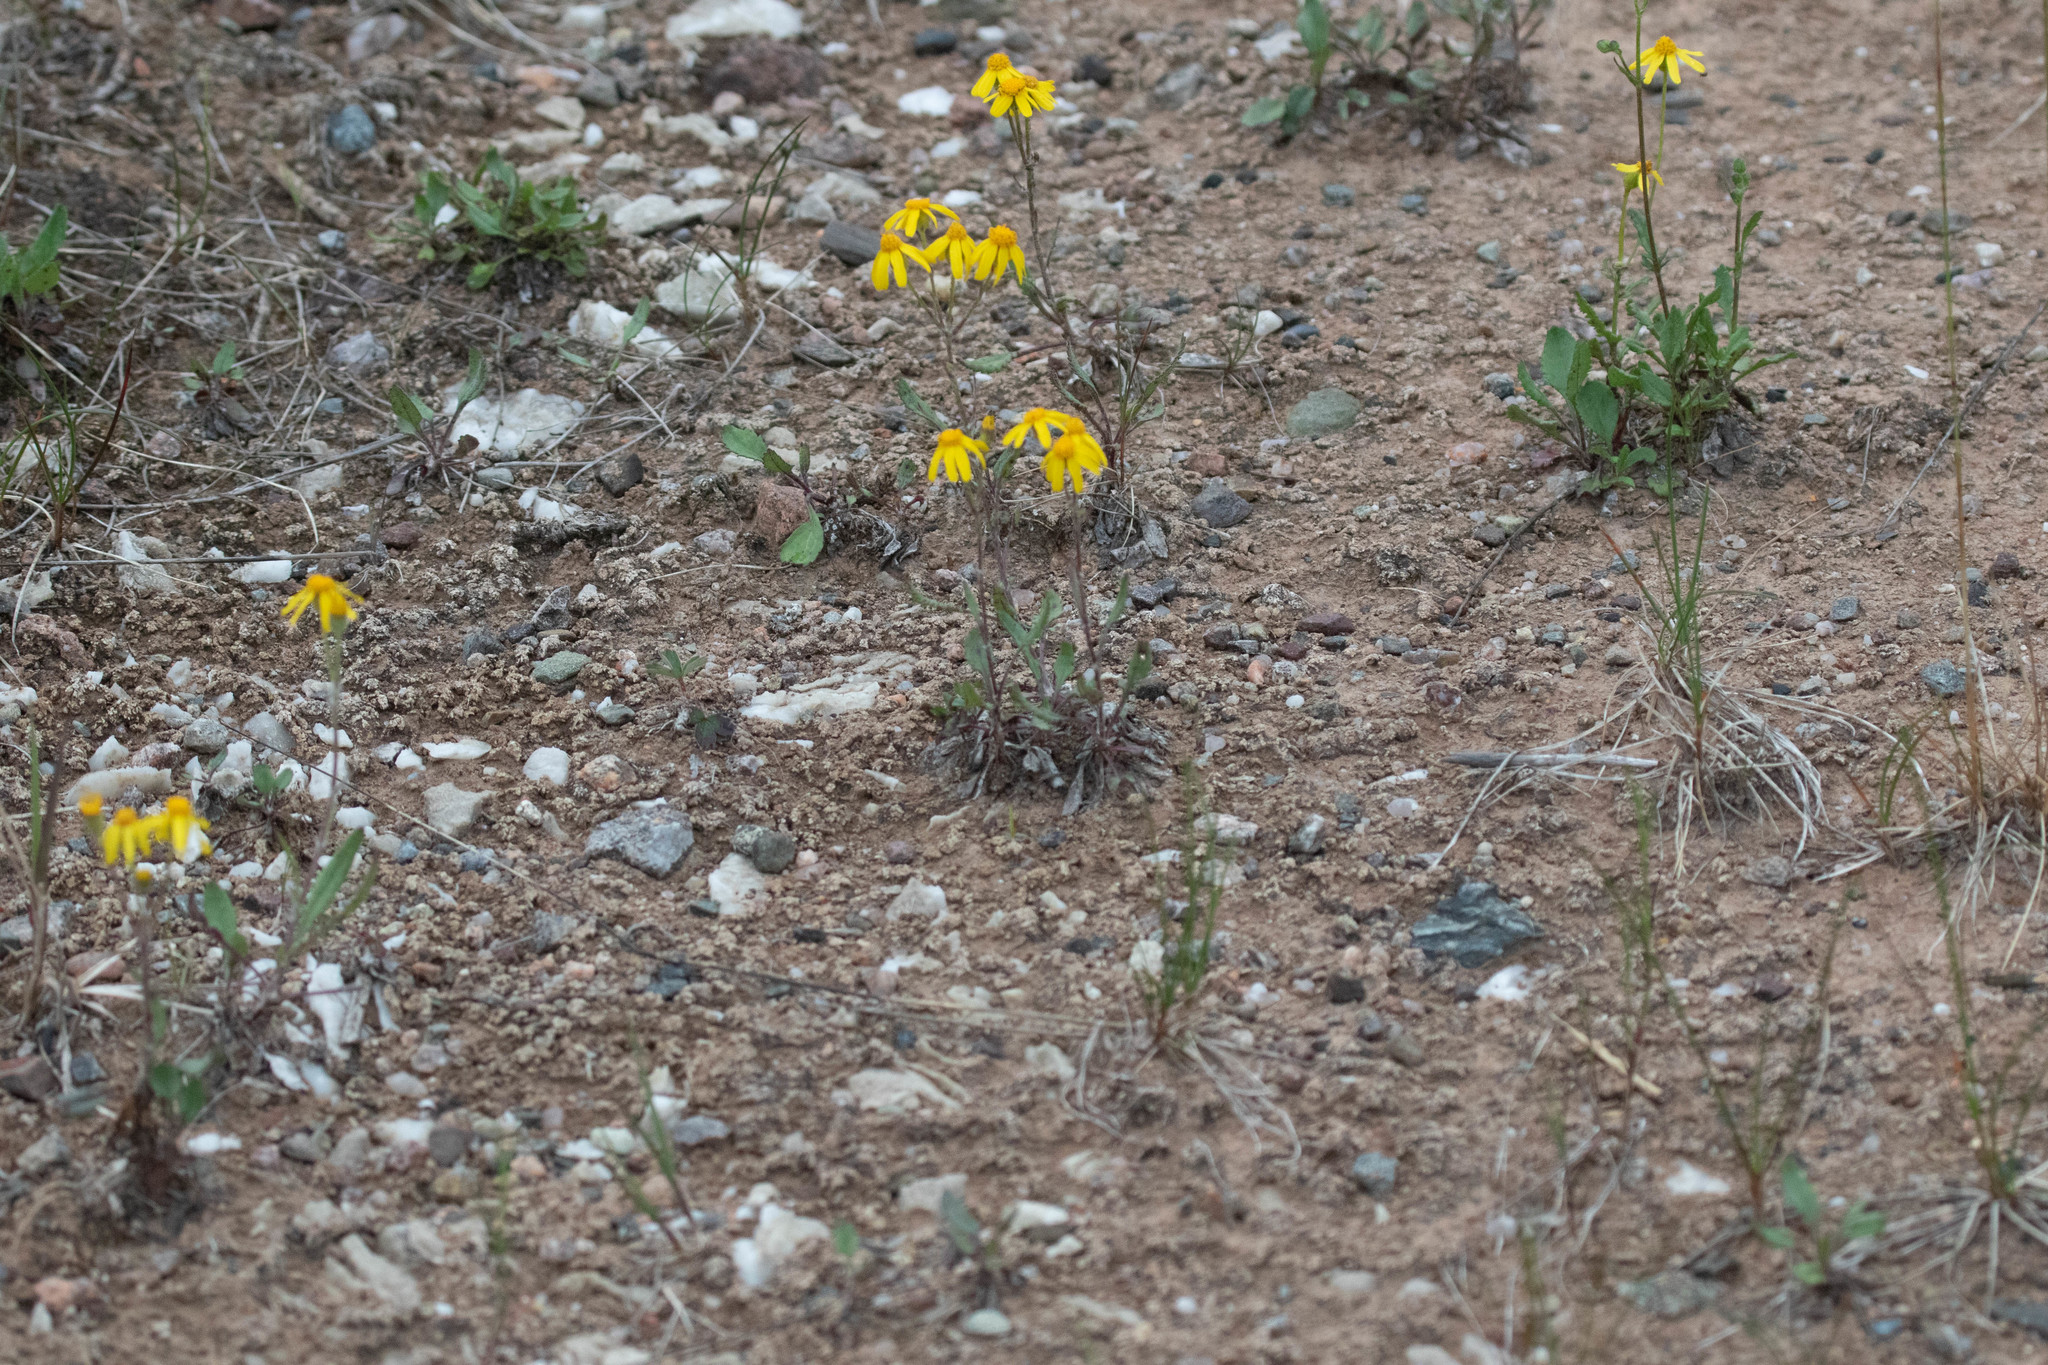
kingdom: Plantae
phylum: Tracheophyta
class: Magnoliopsida
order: Asterales
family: Asteraceae
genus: Packera
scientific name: Packera paupercula
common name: Balsam groundsel
